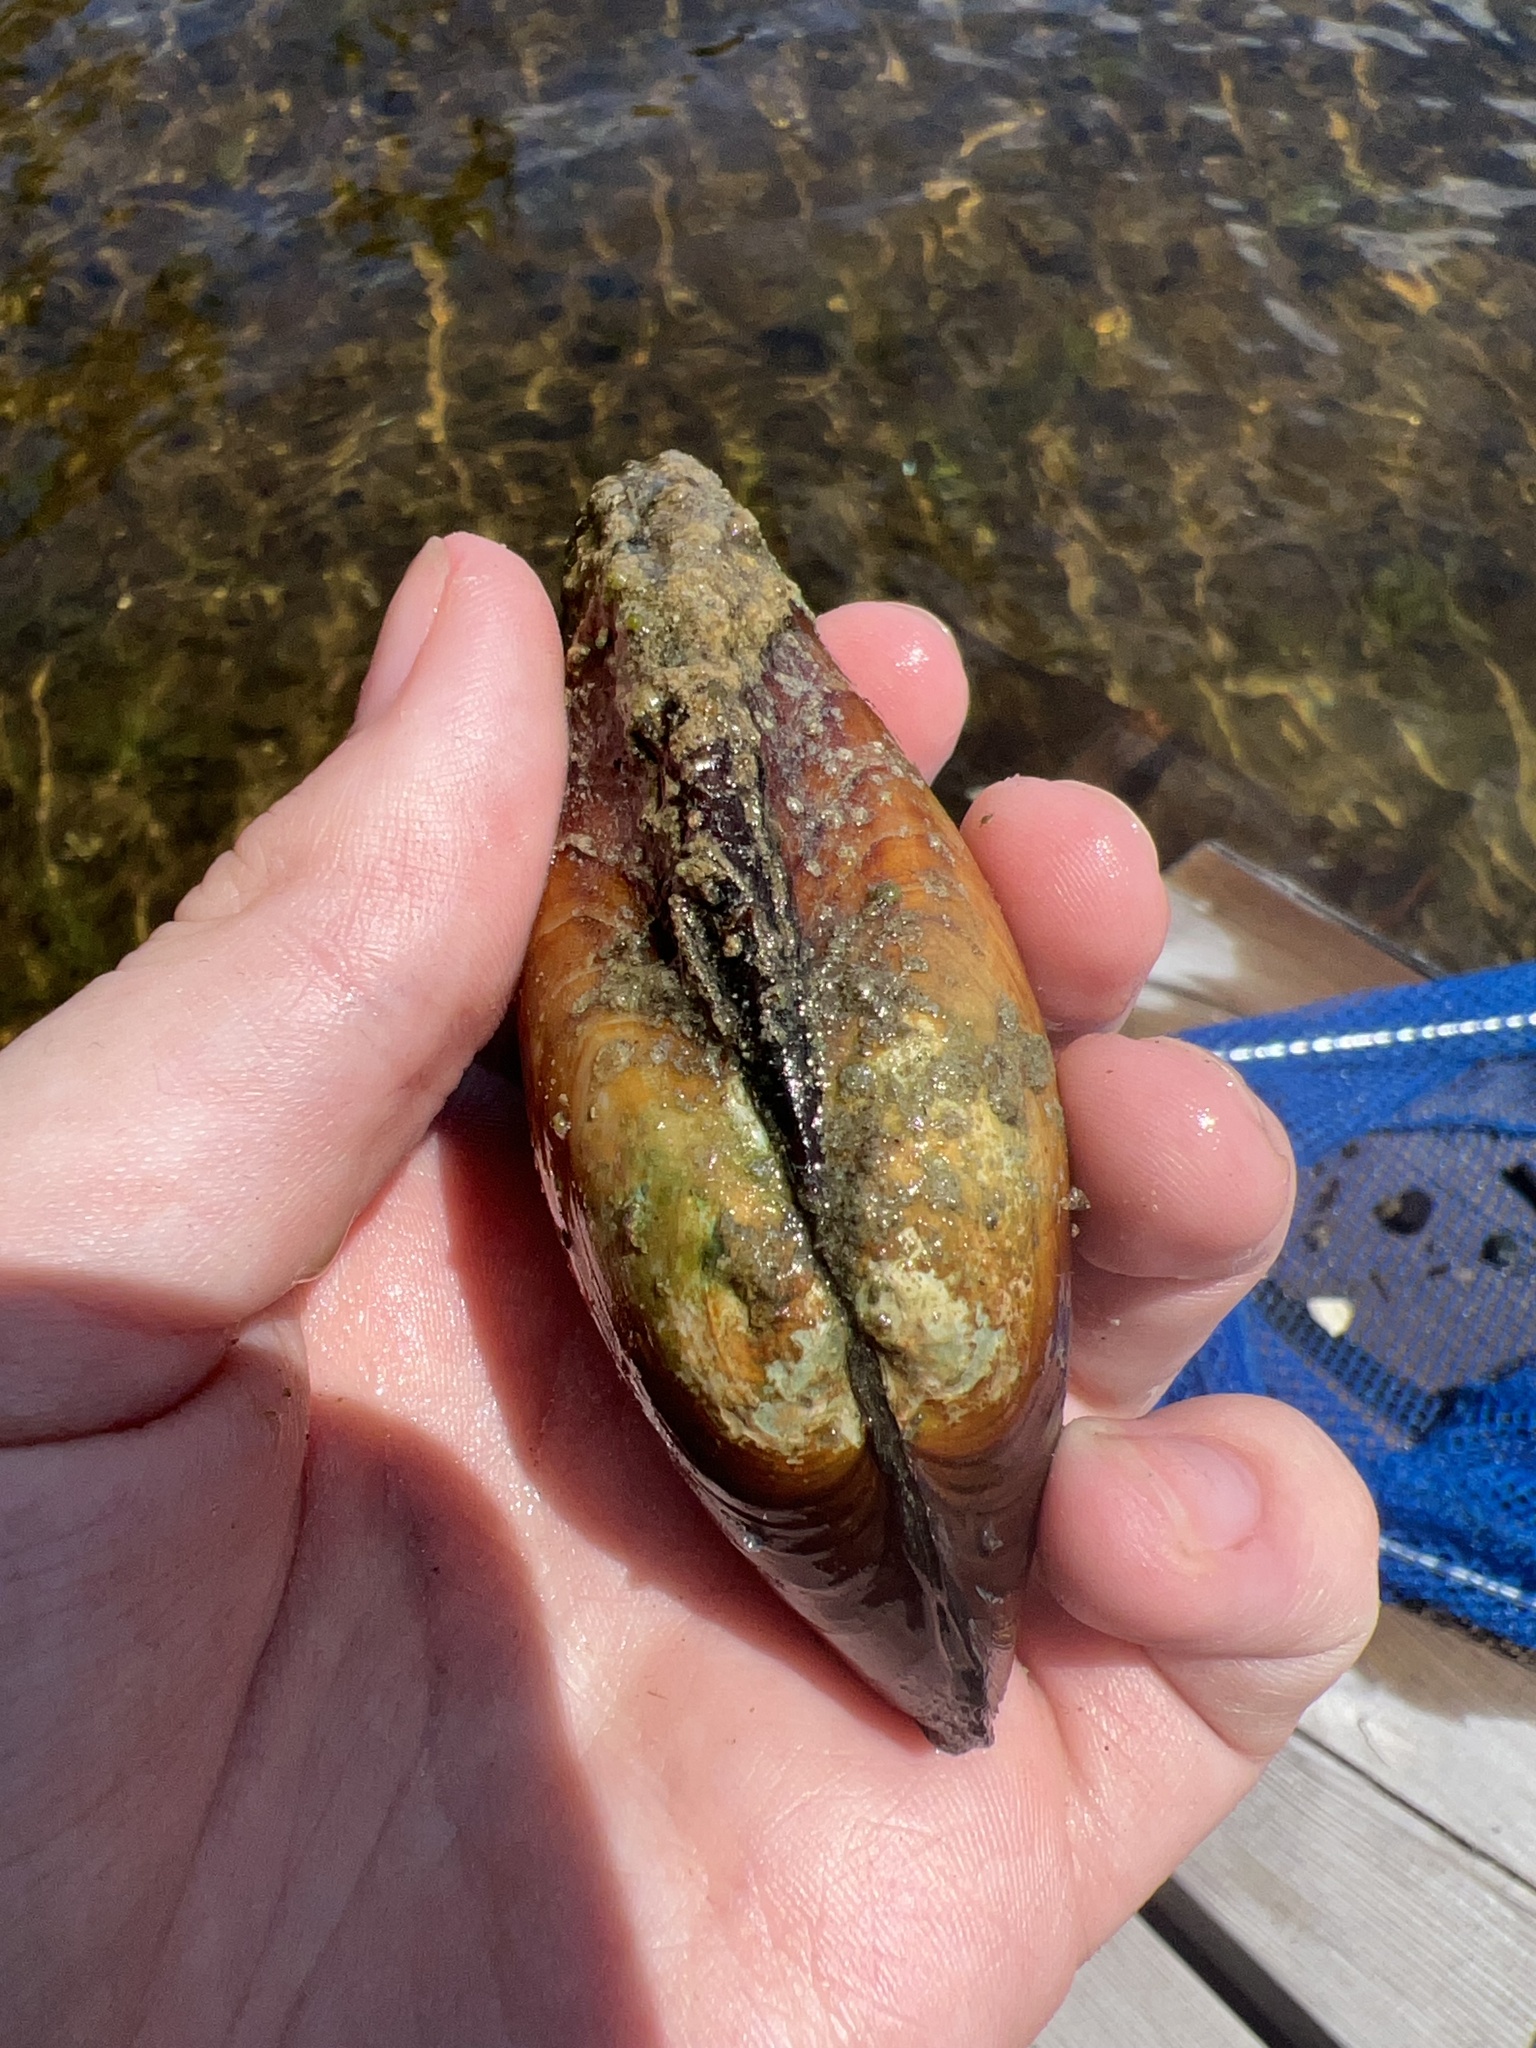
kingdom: Animalia
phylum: Mollusca
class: Bivalvia
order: Unionida
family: Unionidae
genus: Lampsilis
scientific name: Lampsilis siliquoidea
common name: Fatmucket
